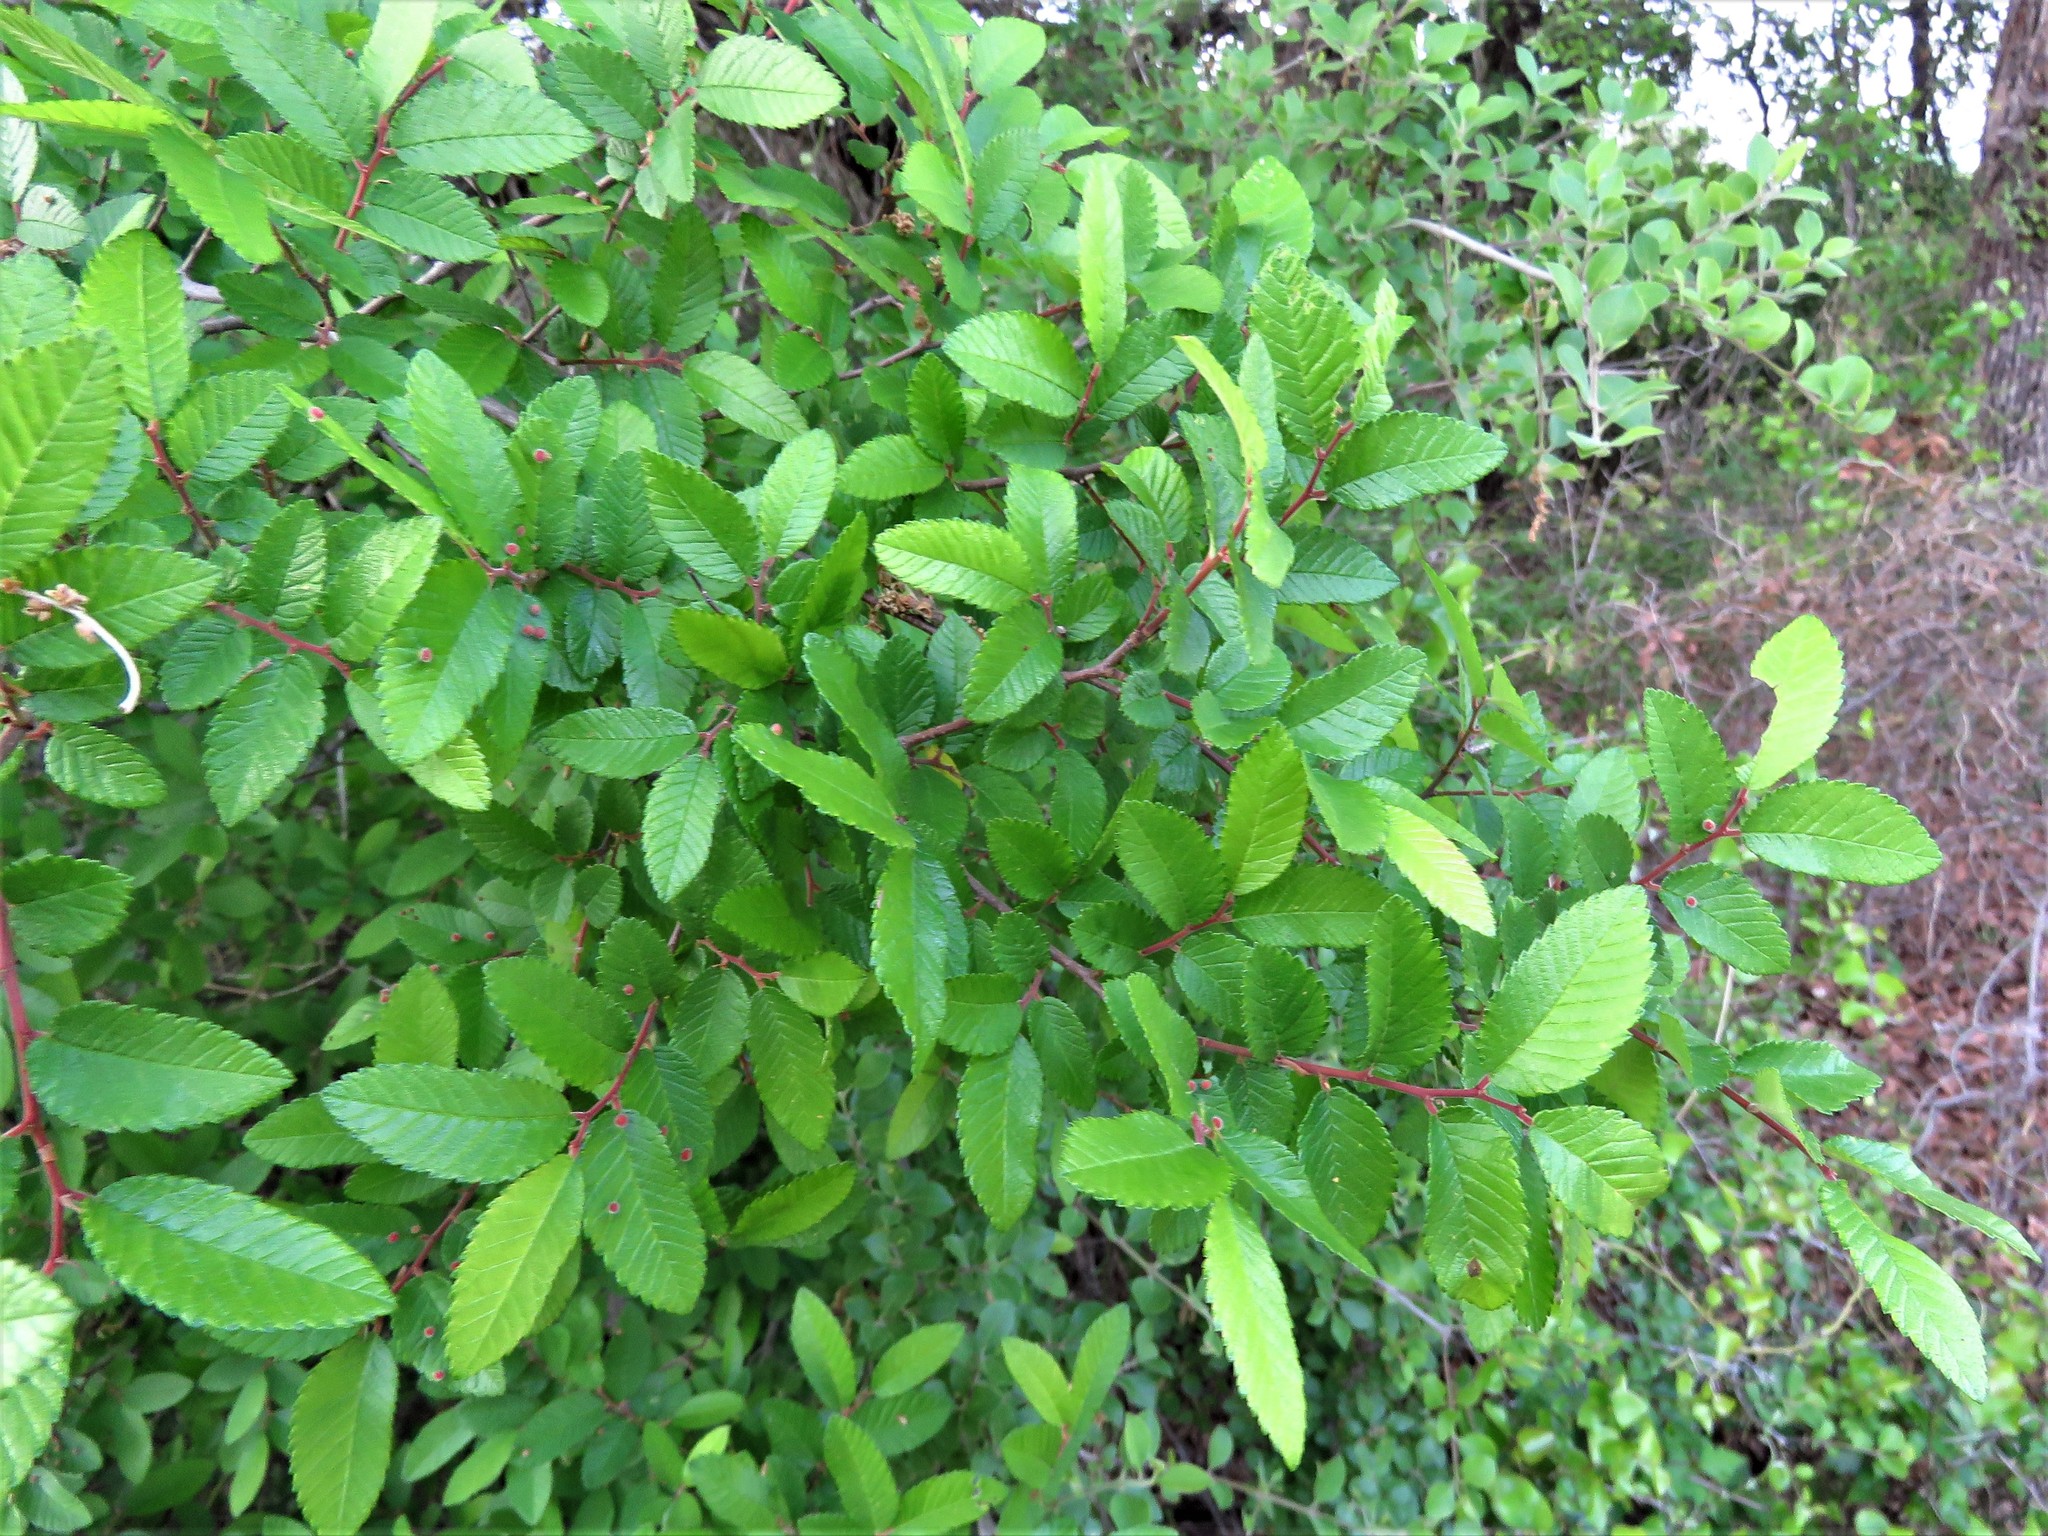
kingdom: Plantae
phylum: Tracheophyta
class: Magnoliopsida
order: Rosales
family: Ulmaceae
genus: Ulmus
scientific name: Ulmus crassifolia
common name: Basket elm
